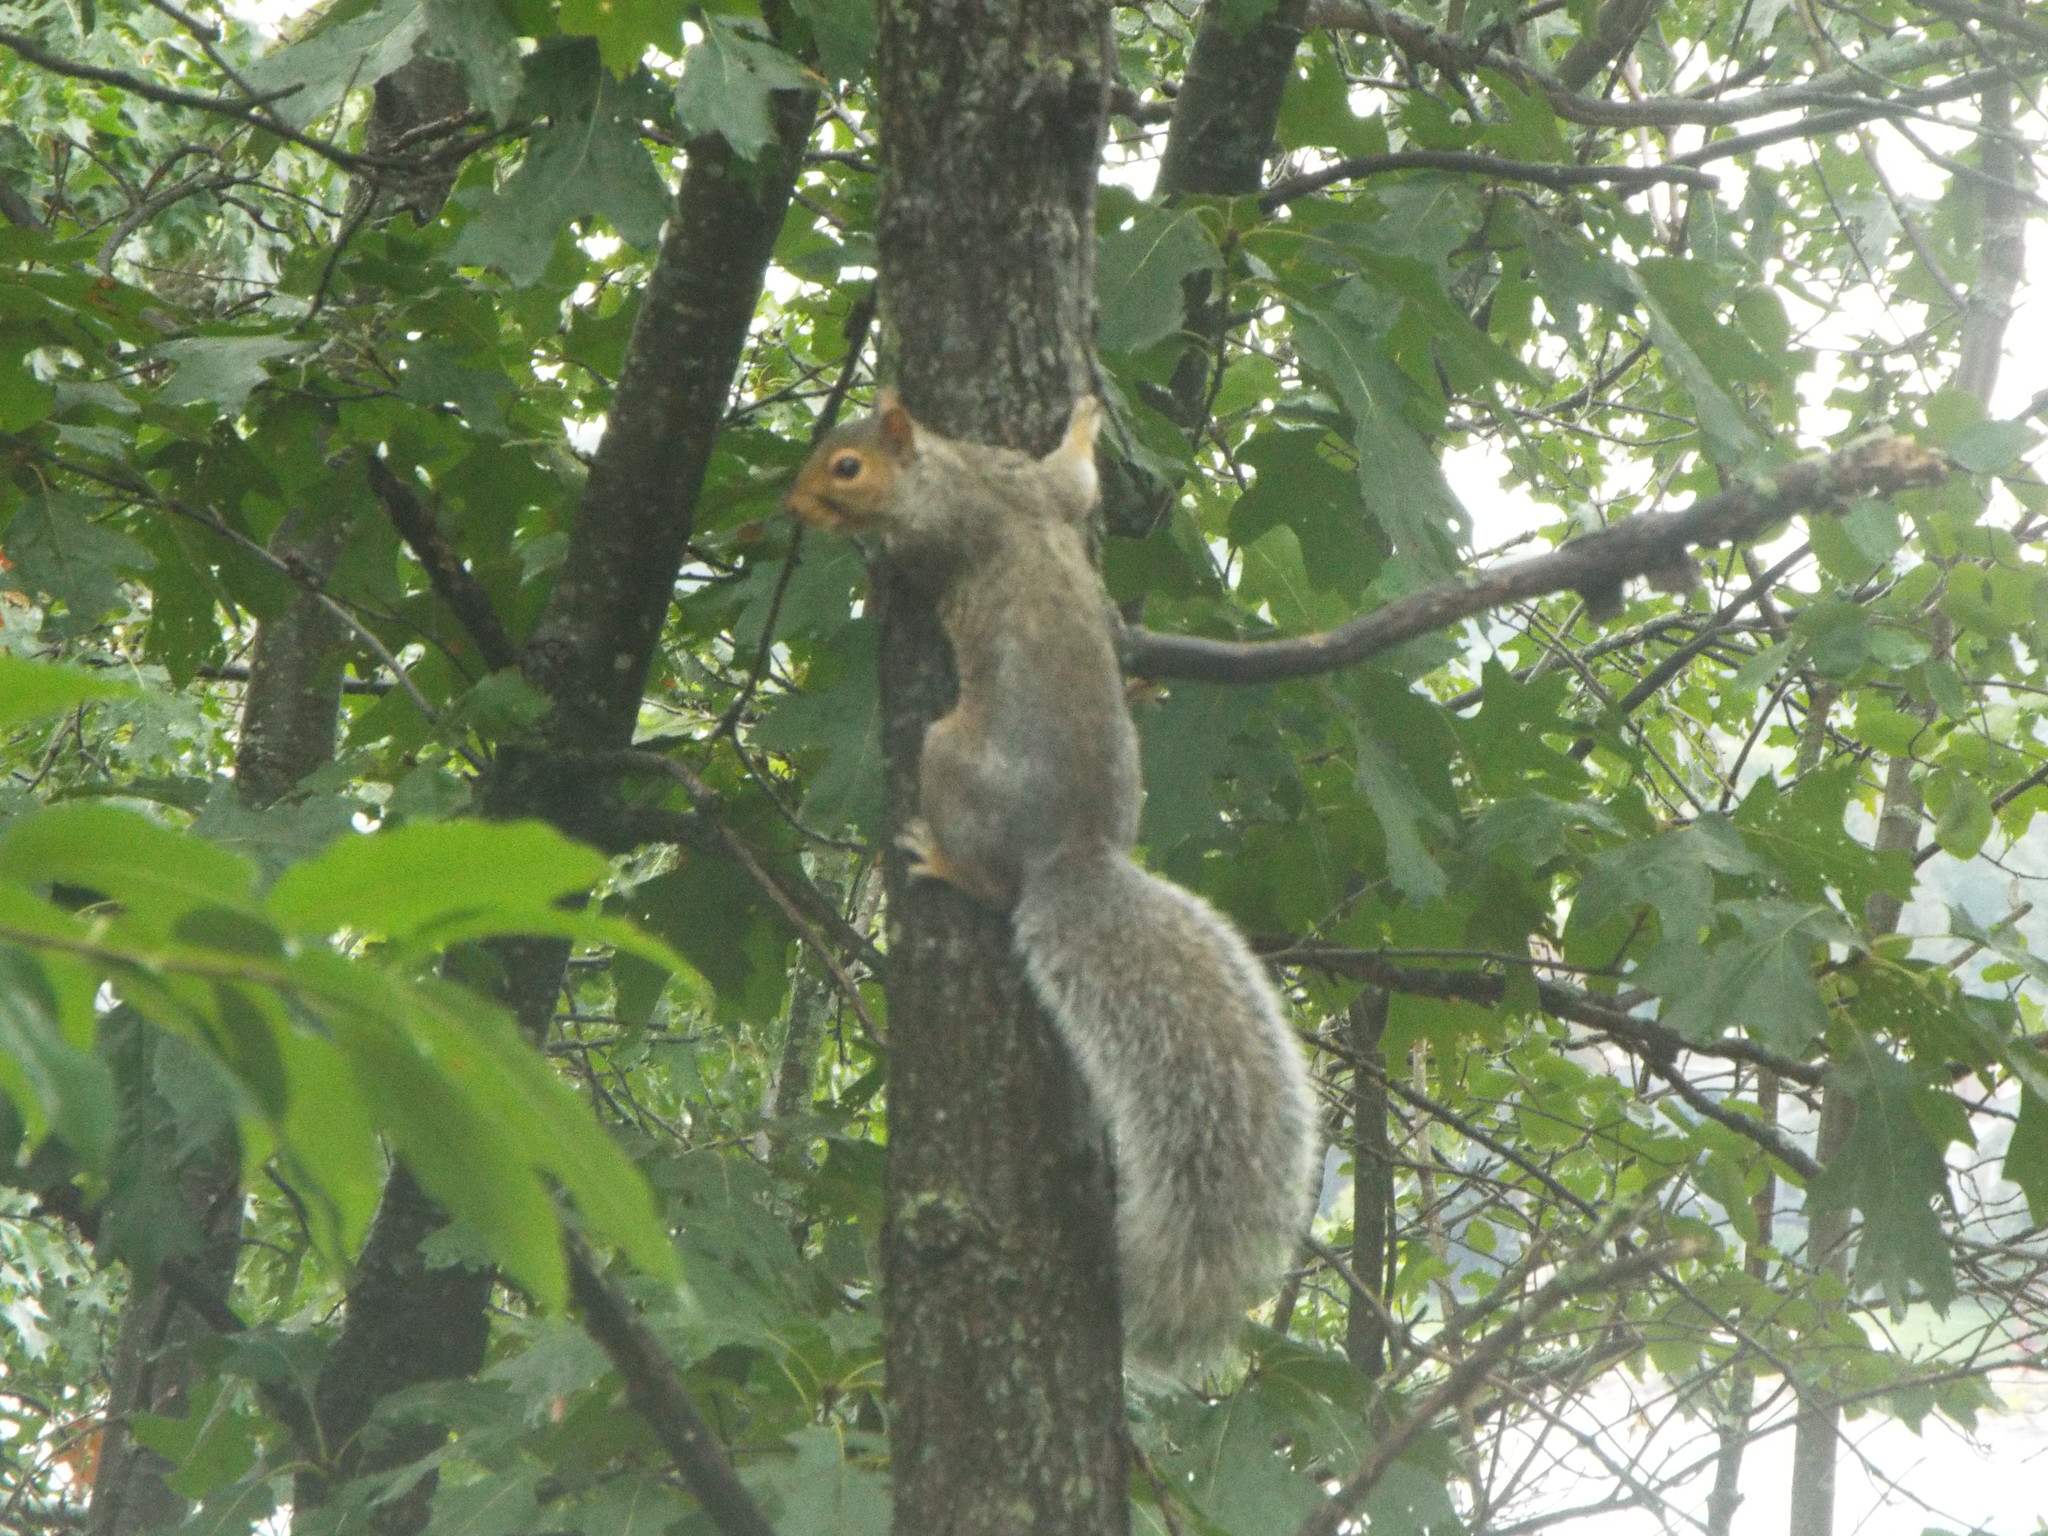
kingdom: Animalia
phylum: Chordata
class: Mammalia
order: Rodentia
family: Sciuridae
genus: Sciurus
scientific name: Sciurus carolinensis
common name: Eastern gray squirrel
